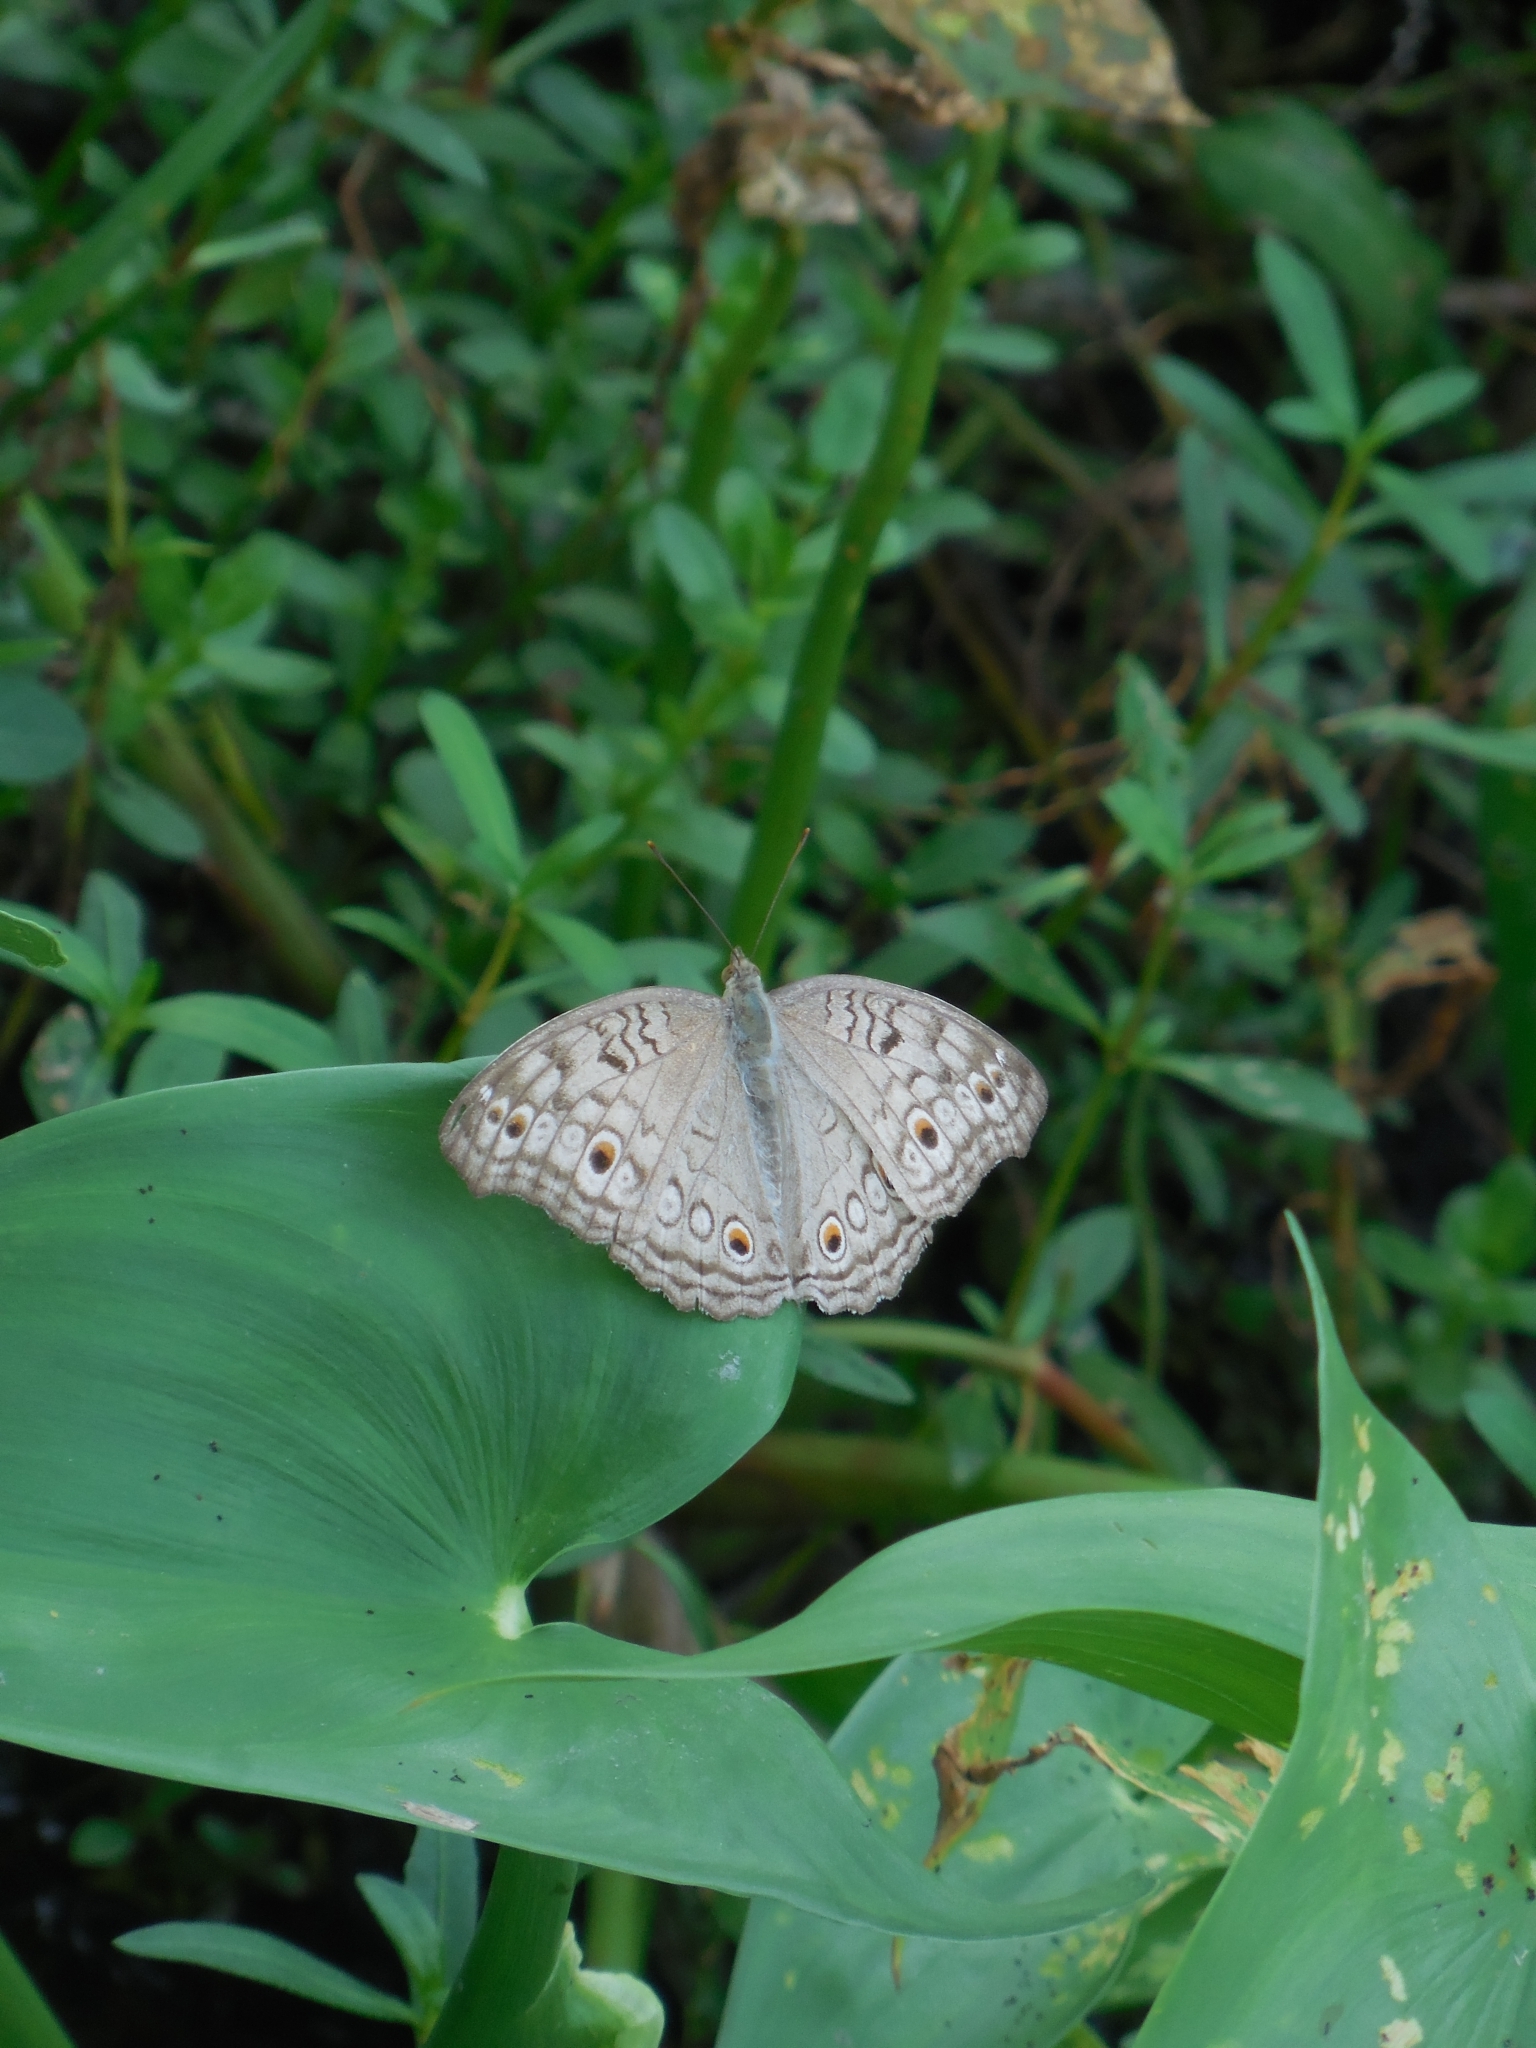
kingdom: Animalia
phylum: Arthropoda
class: Insecta
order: Lepidoptera
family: Nymphalidae
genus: Junonia
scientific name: Junonia atlites
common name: Grey pansy
